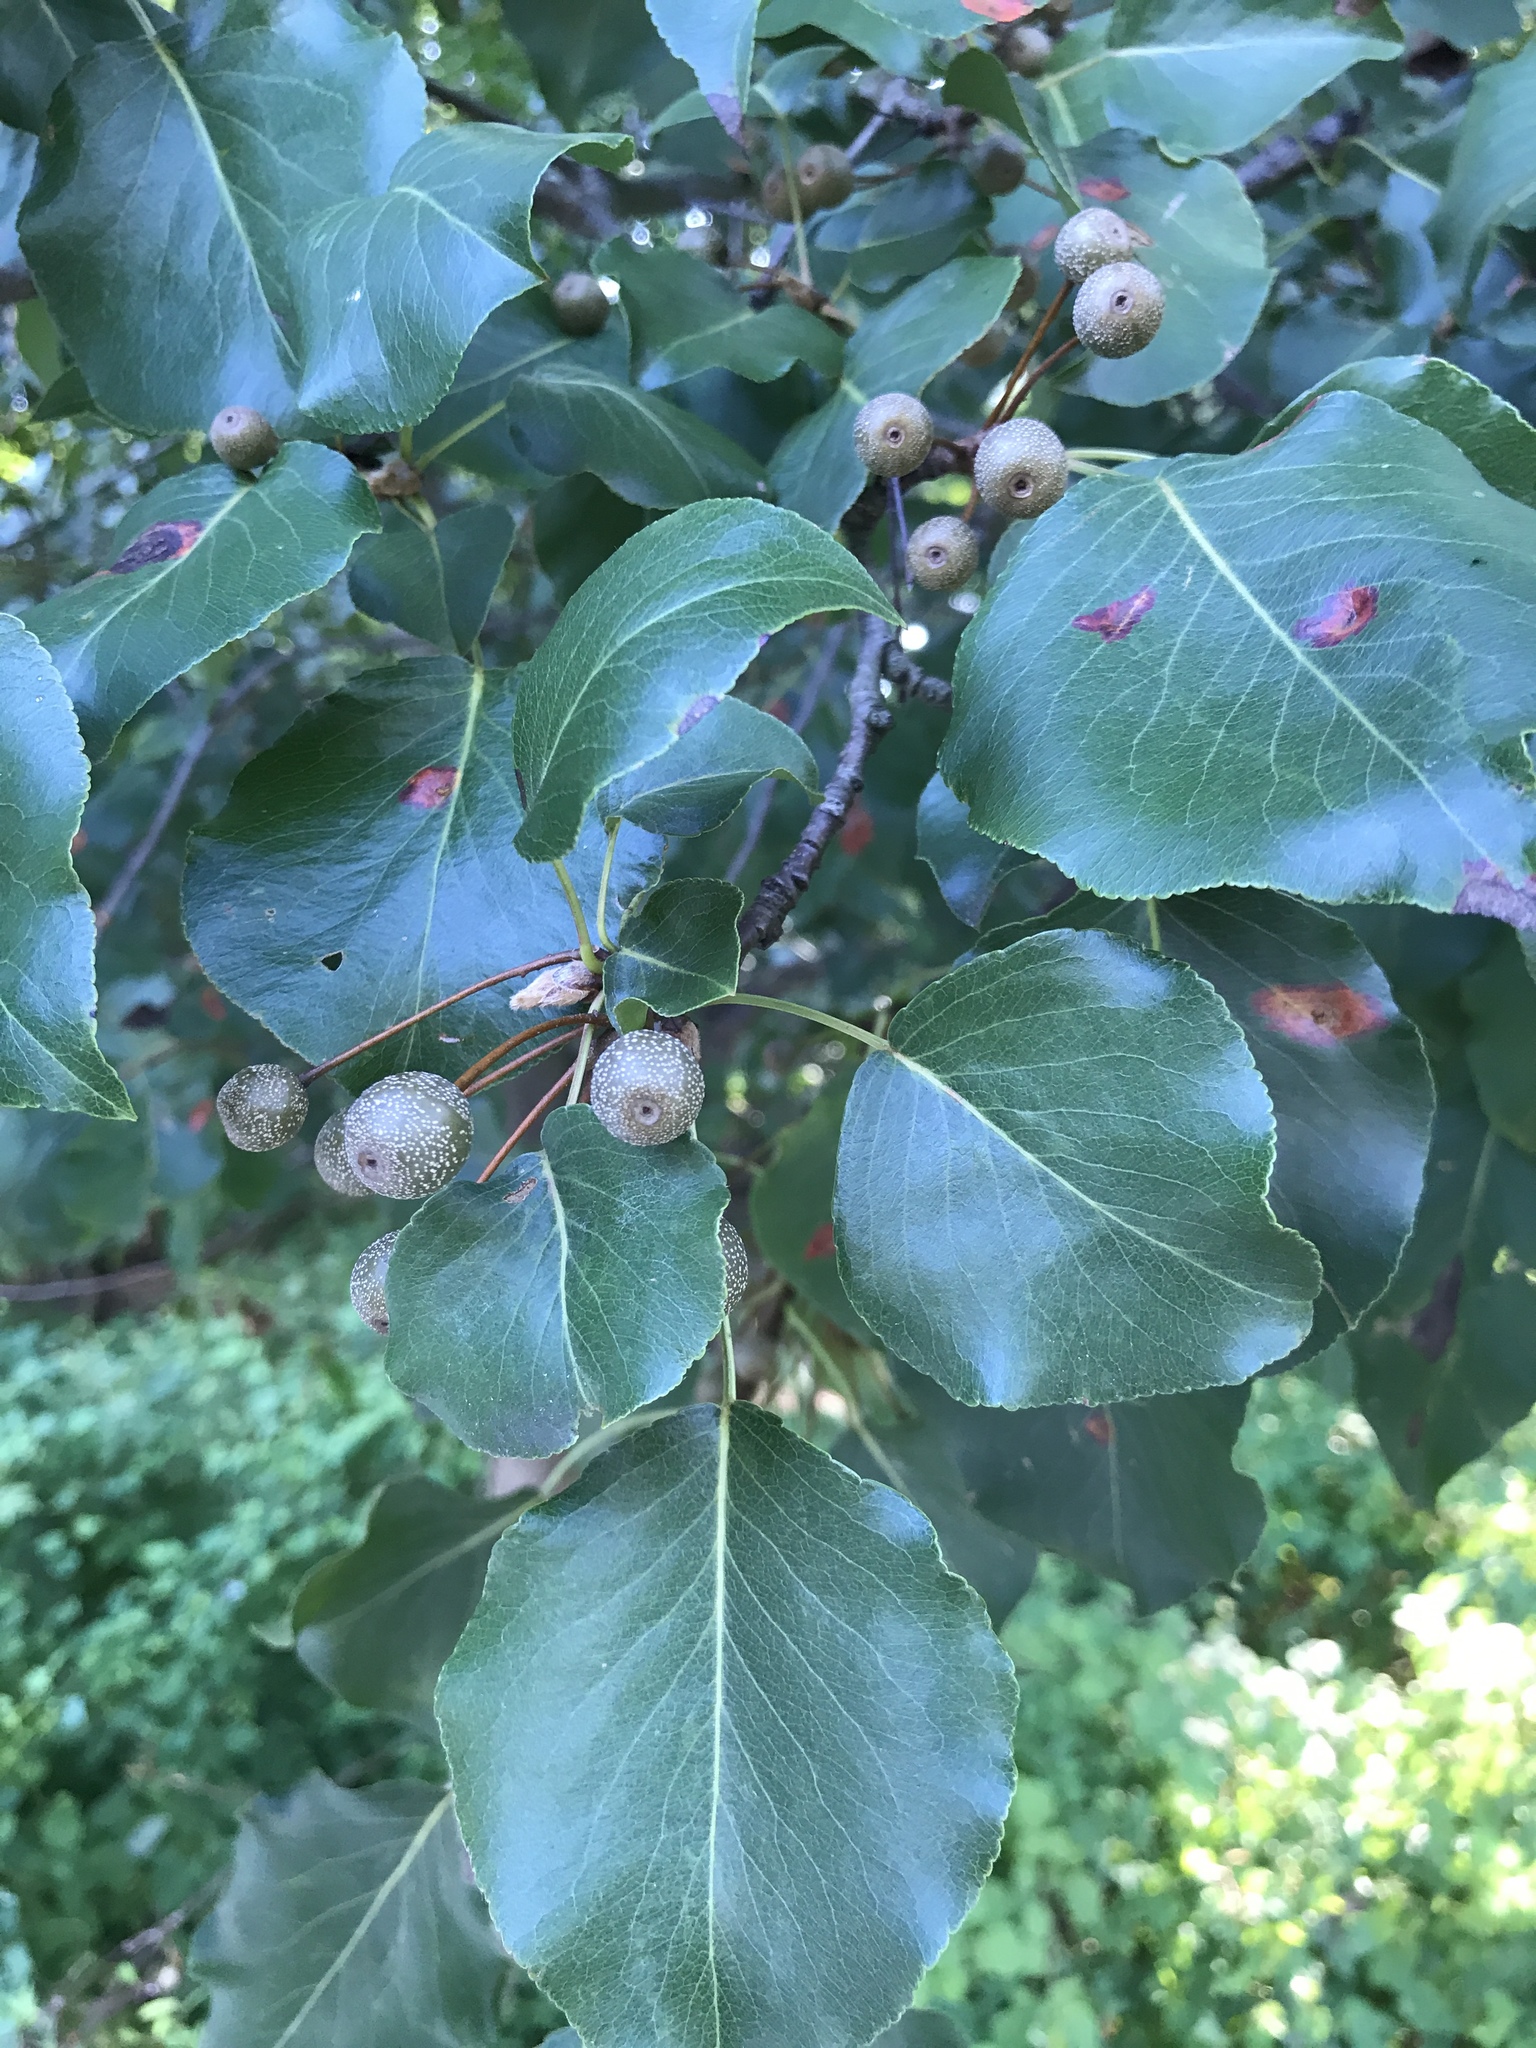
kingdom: Plantae
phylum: Tracheophyta
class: Magnoliopsida
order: Rosales
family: Rosaceae
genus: Pyrus
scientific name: Pyrus calleryana
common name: Callery pear
